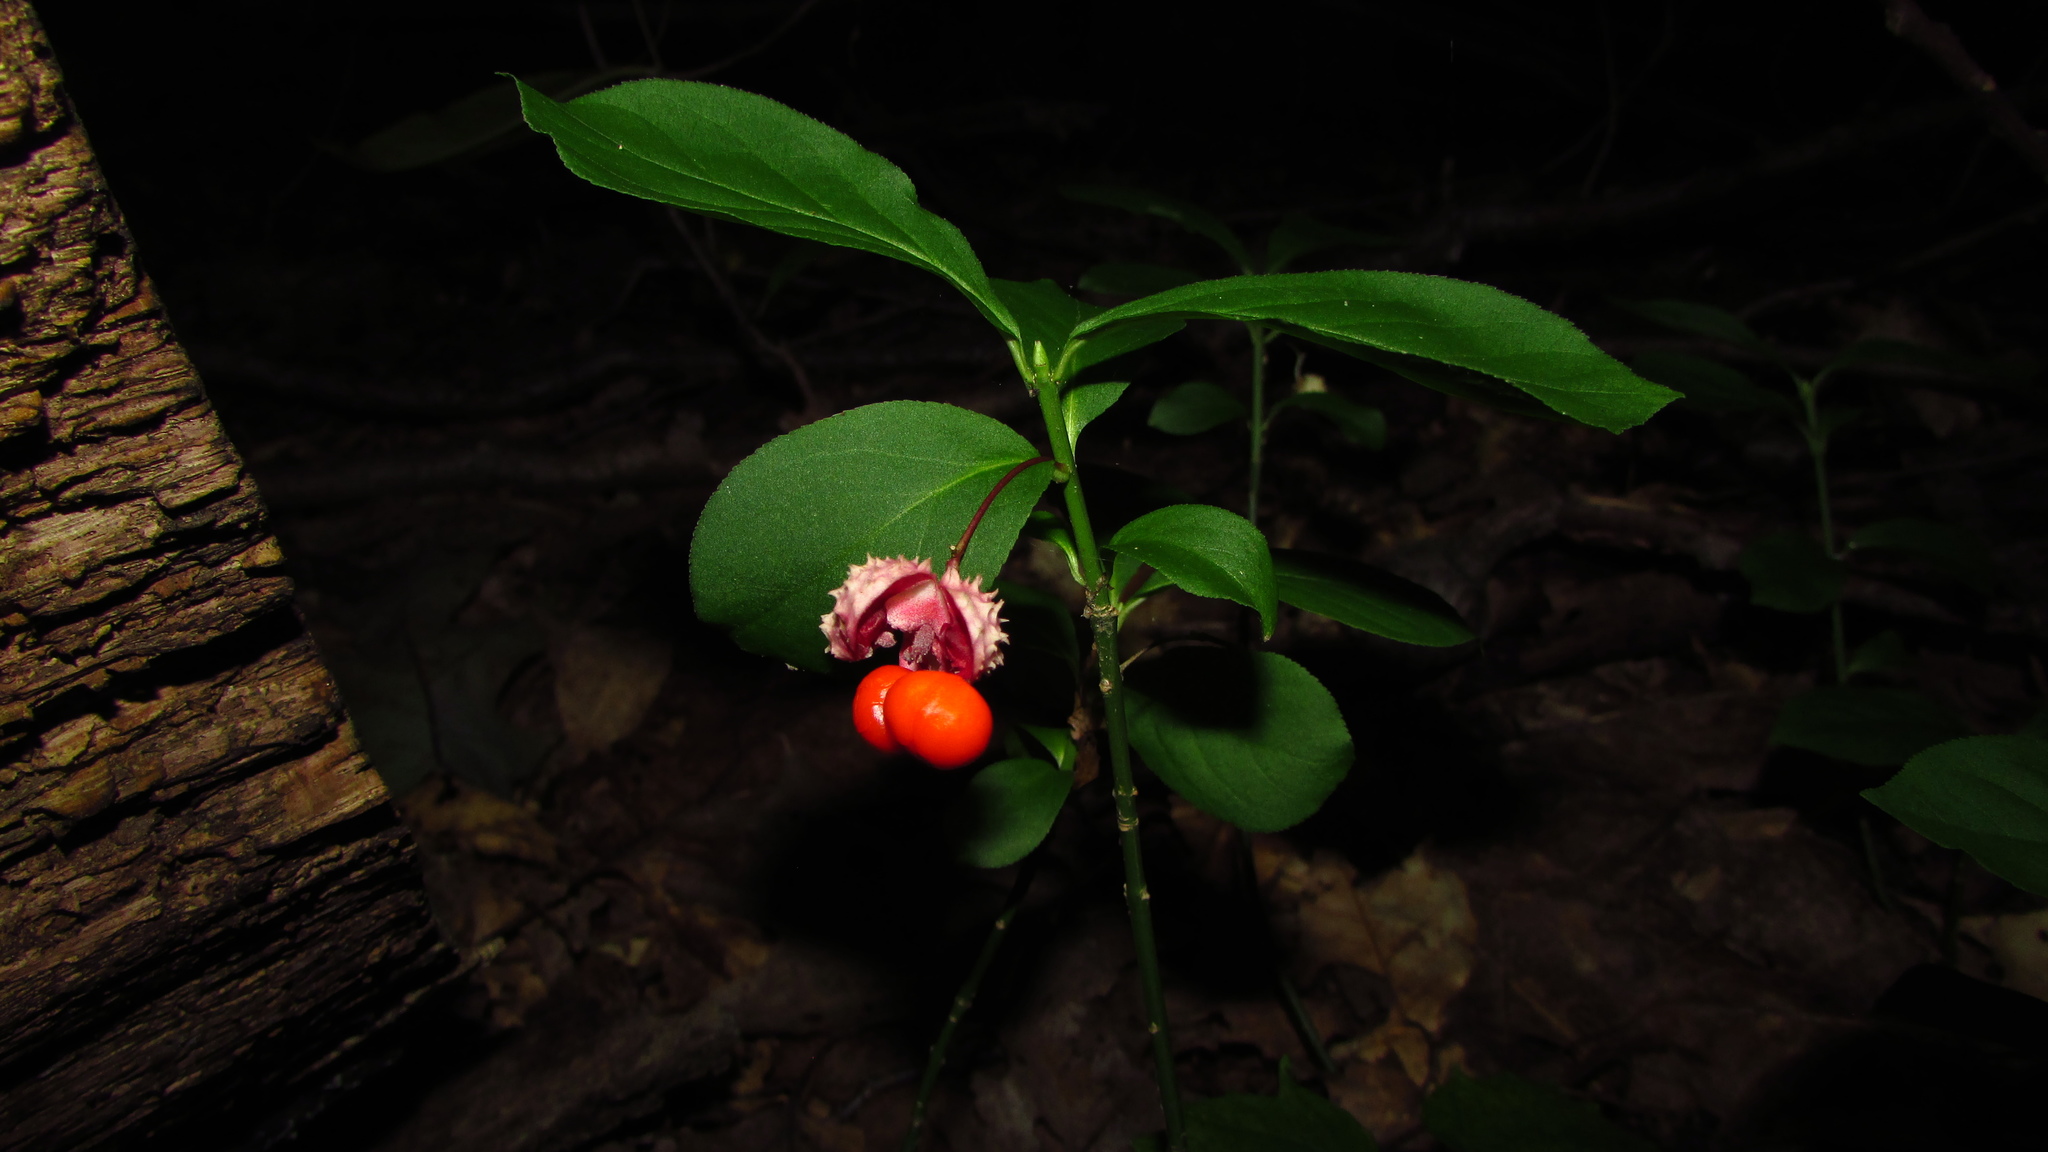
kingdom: Plantae
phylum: Tracheophyta
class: Magnoliopsida
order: Celastrales
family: Celastraceae
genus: Euonymus
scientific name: Euonymus obovatus
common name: Running strawberry-bush
